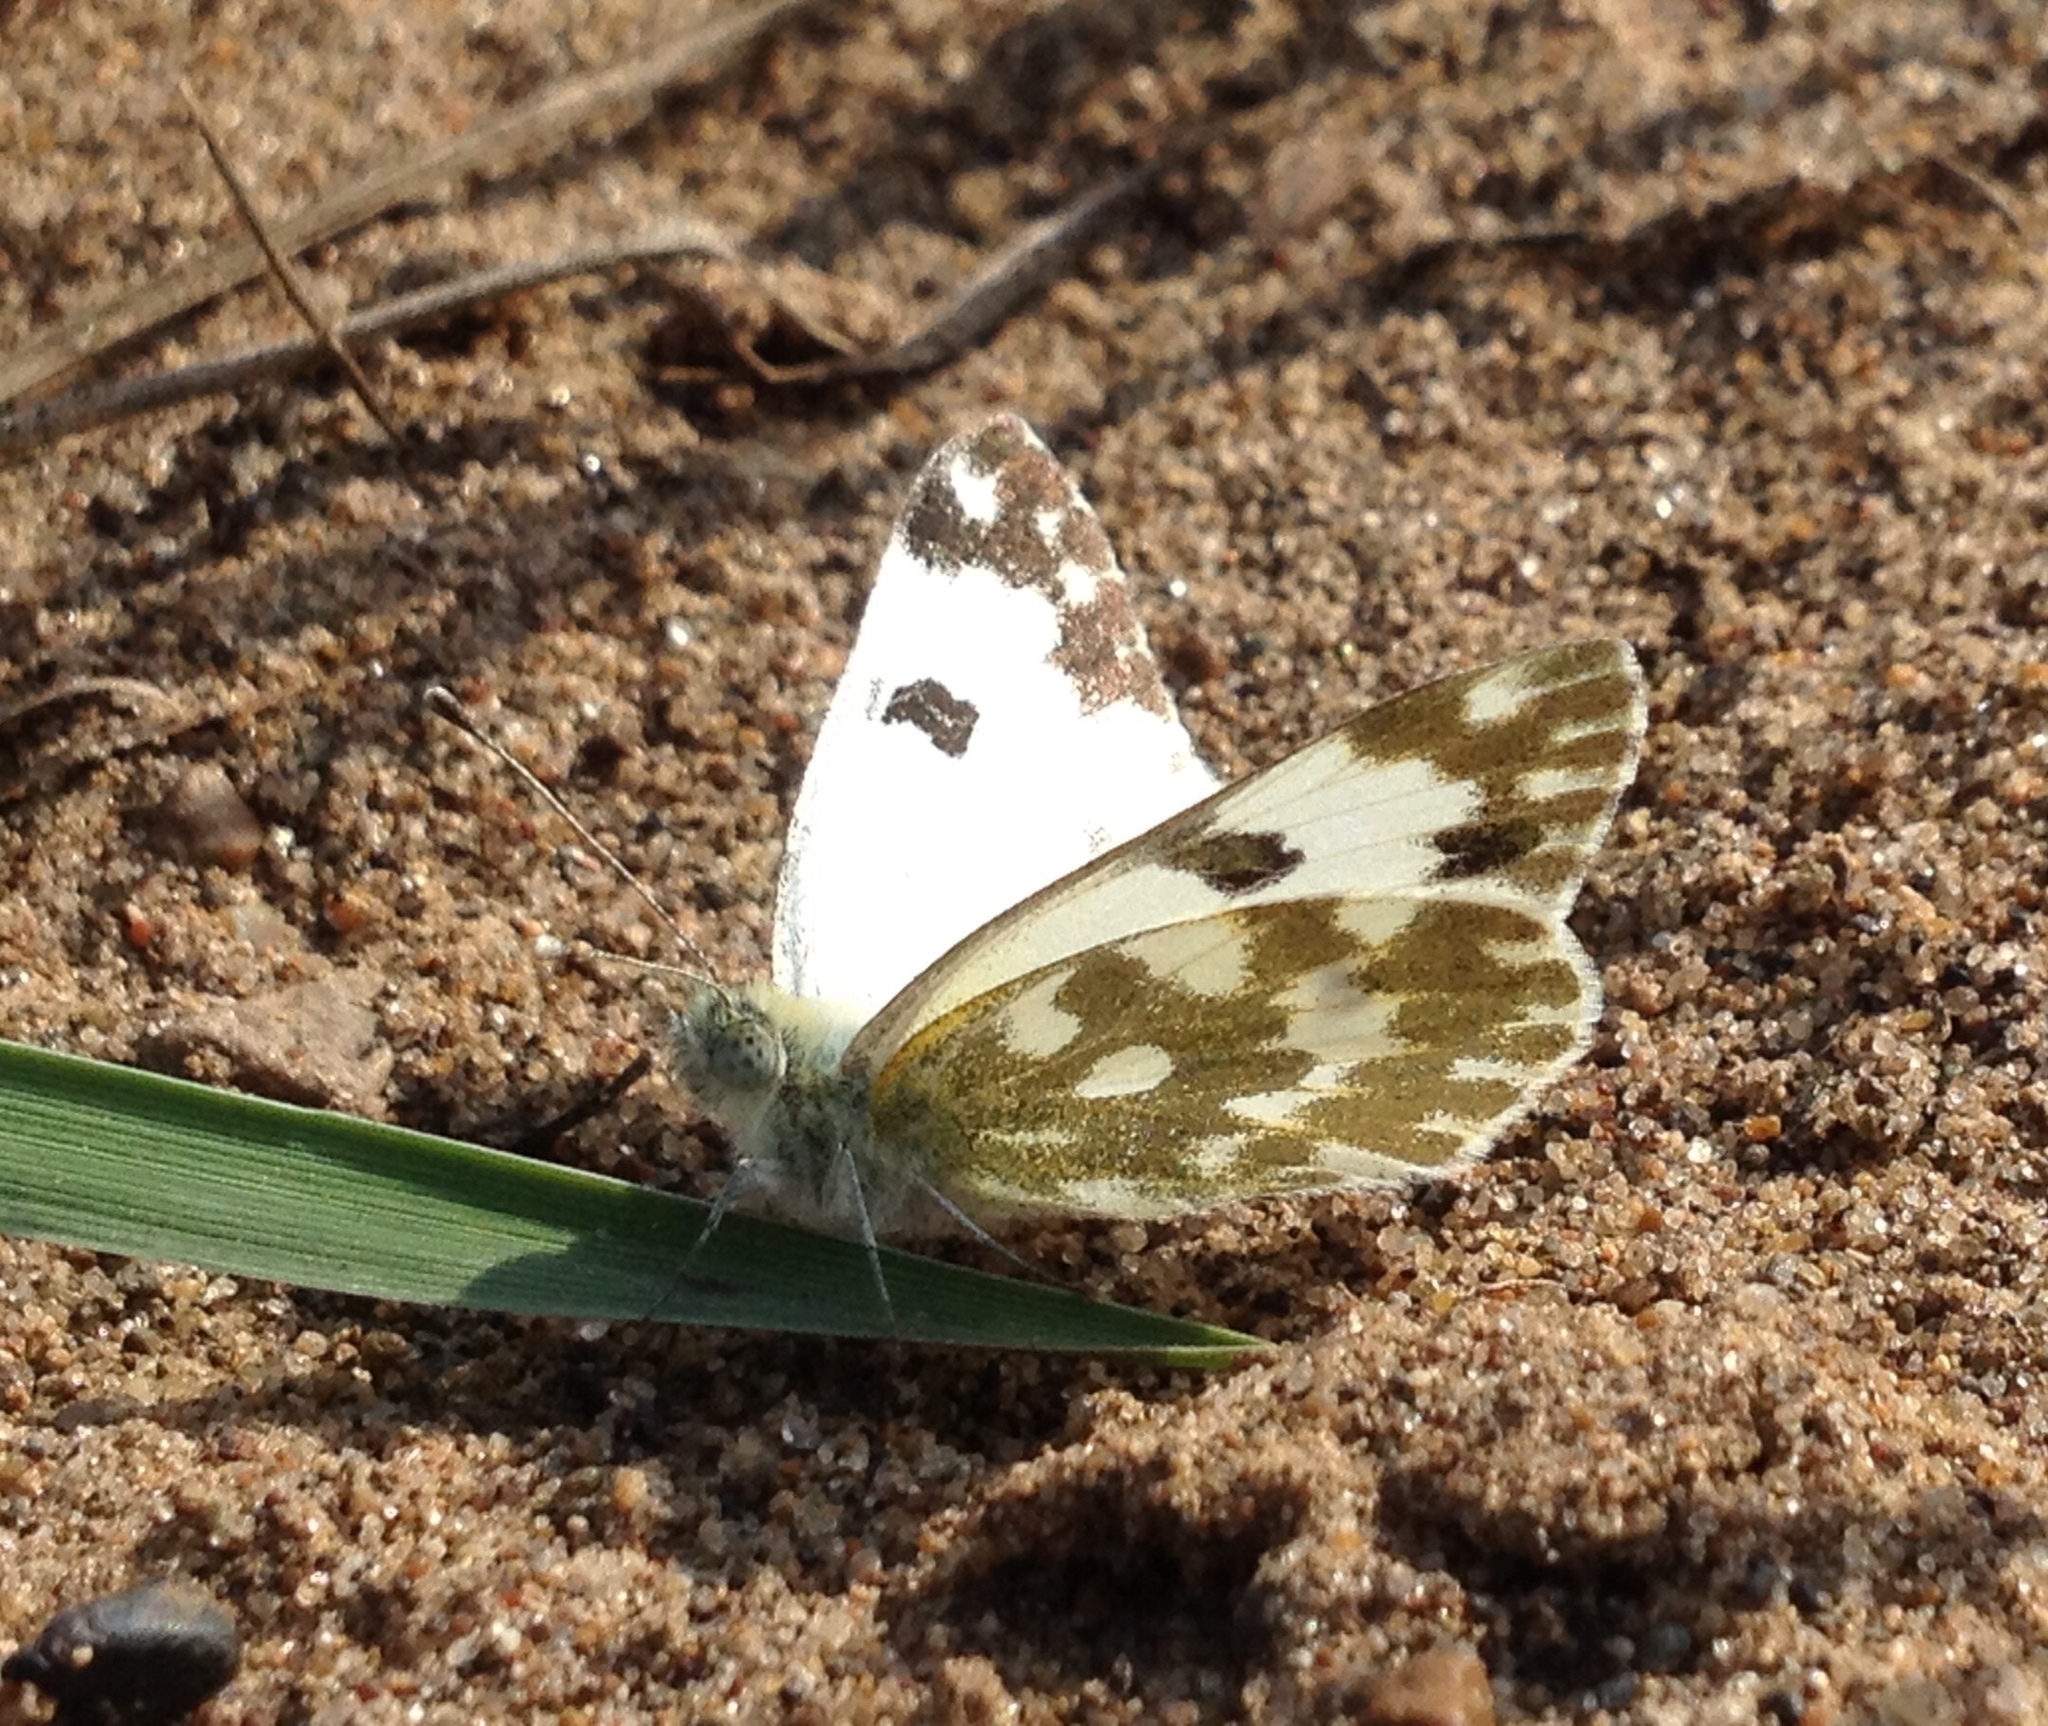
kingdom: Animalia
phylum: Arthropoda
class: Insecta
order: Lepidoptera
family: Pieridae
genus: Pontia
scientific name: Pontia edusa
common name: Eastern bath white
